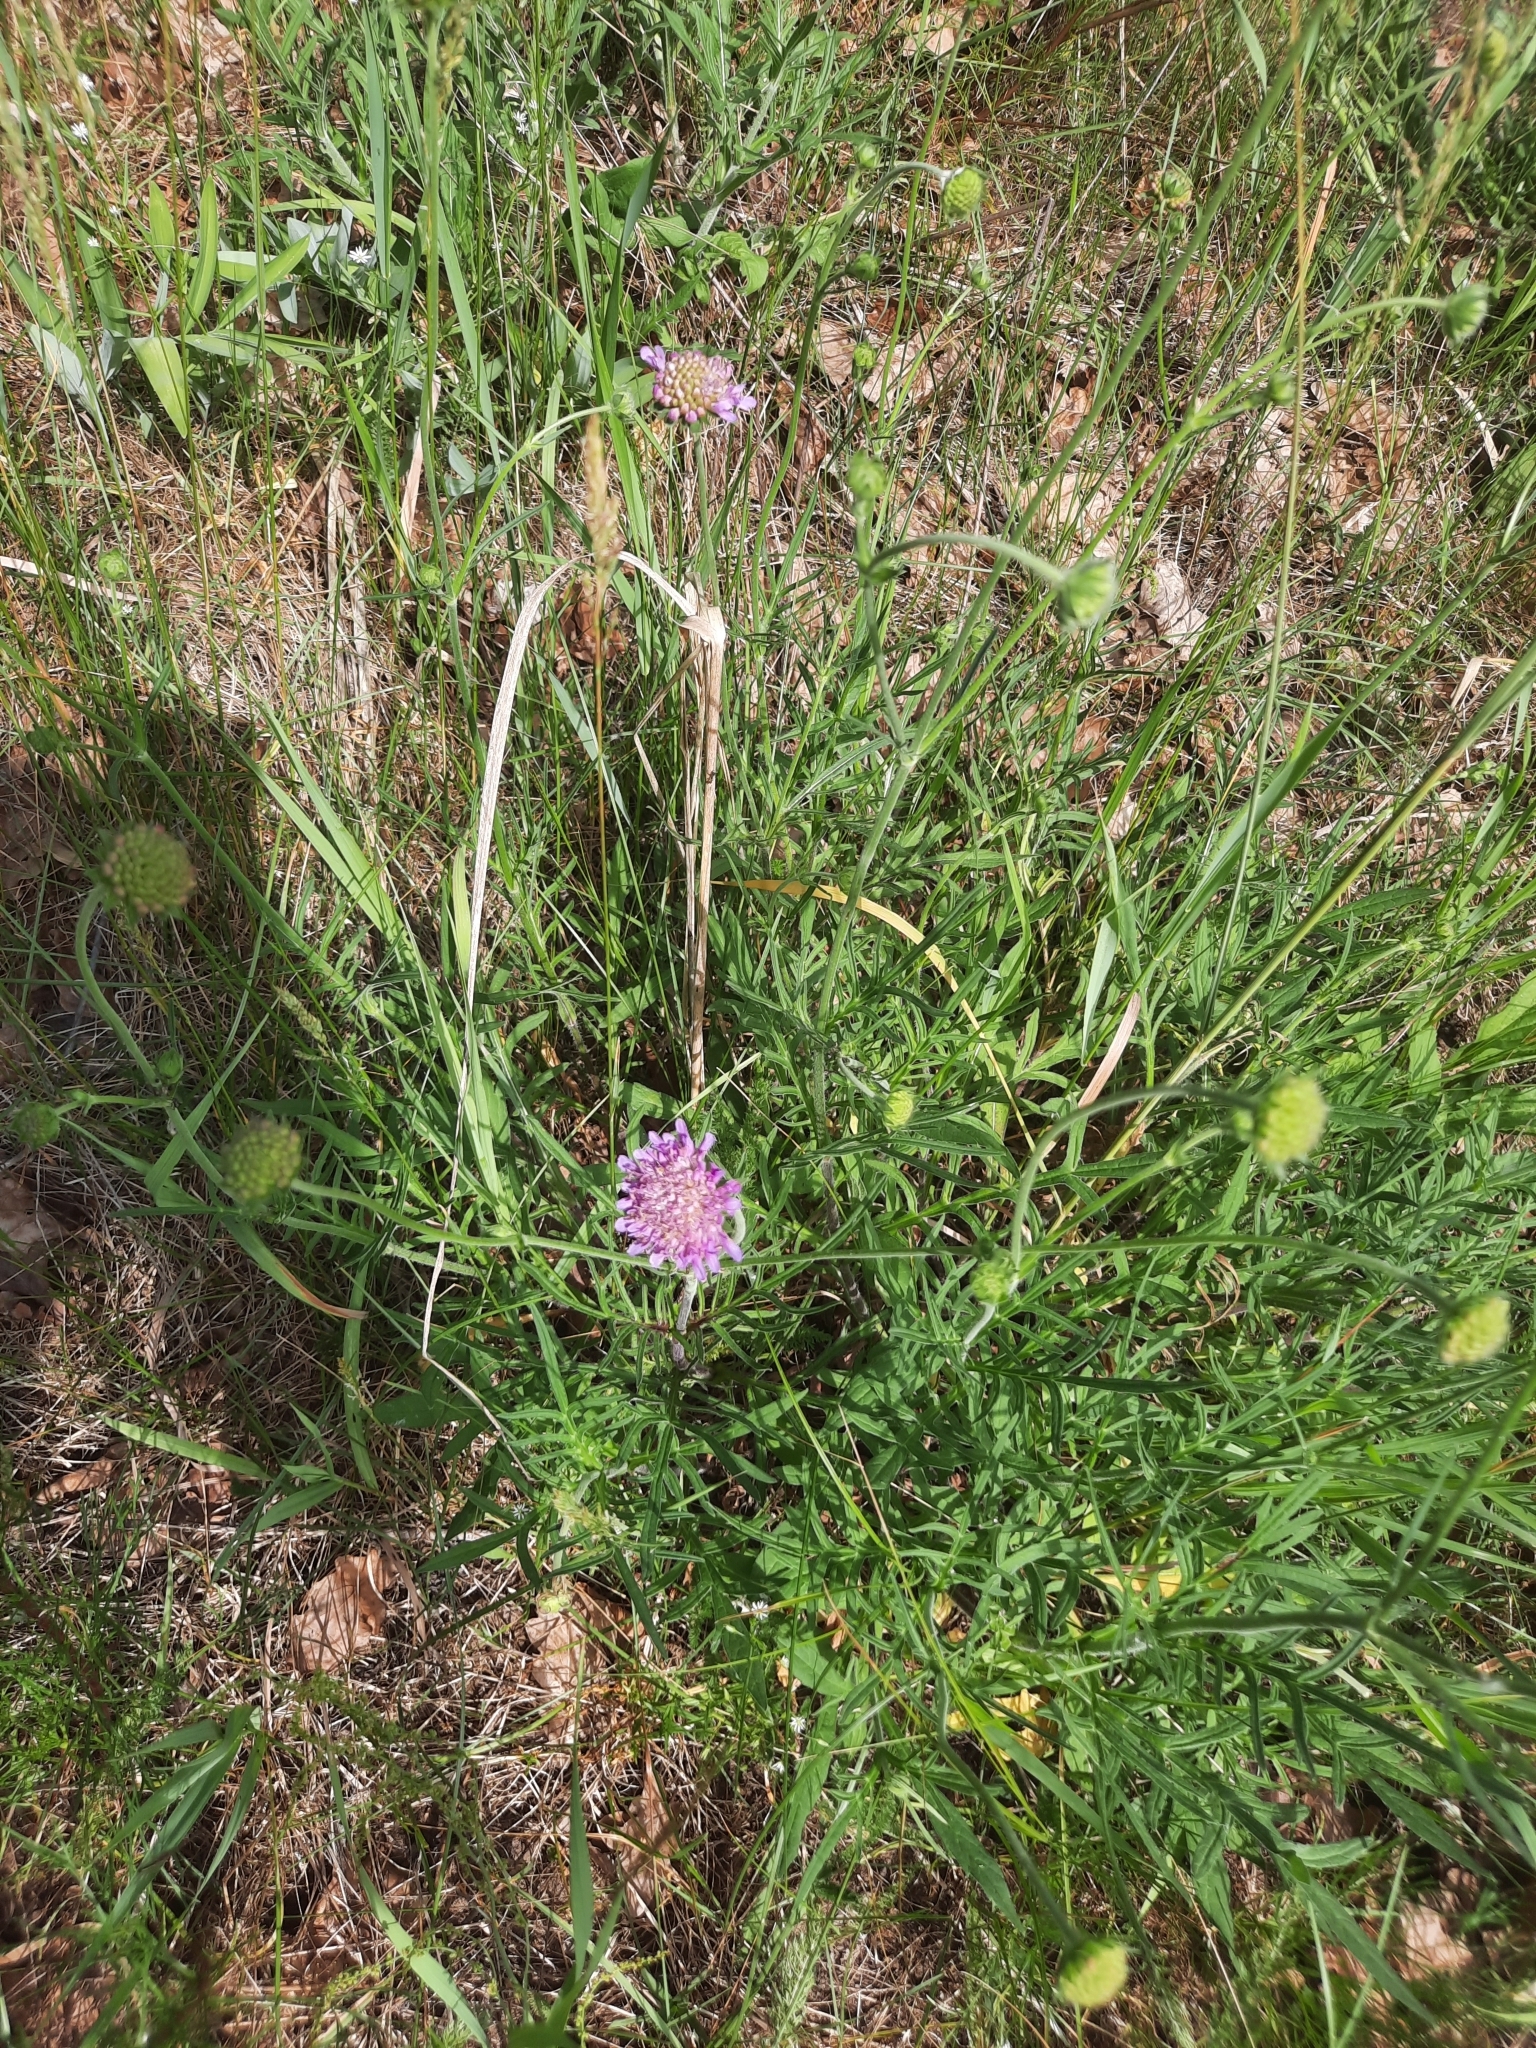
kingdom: Plantae
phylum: Tracheophyta
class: Magnoliopsida
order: Dipsacales
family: Caprifoliaceae
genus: Knautia
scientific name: Knautia arvensis
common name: Field scabiosa
